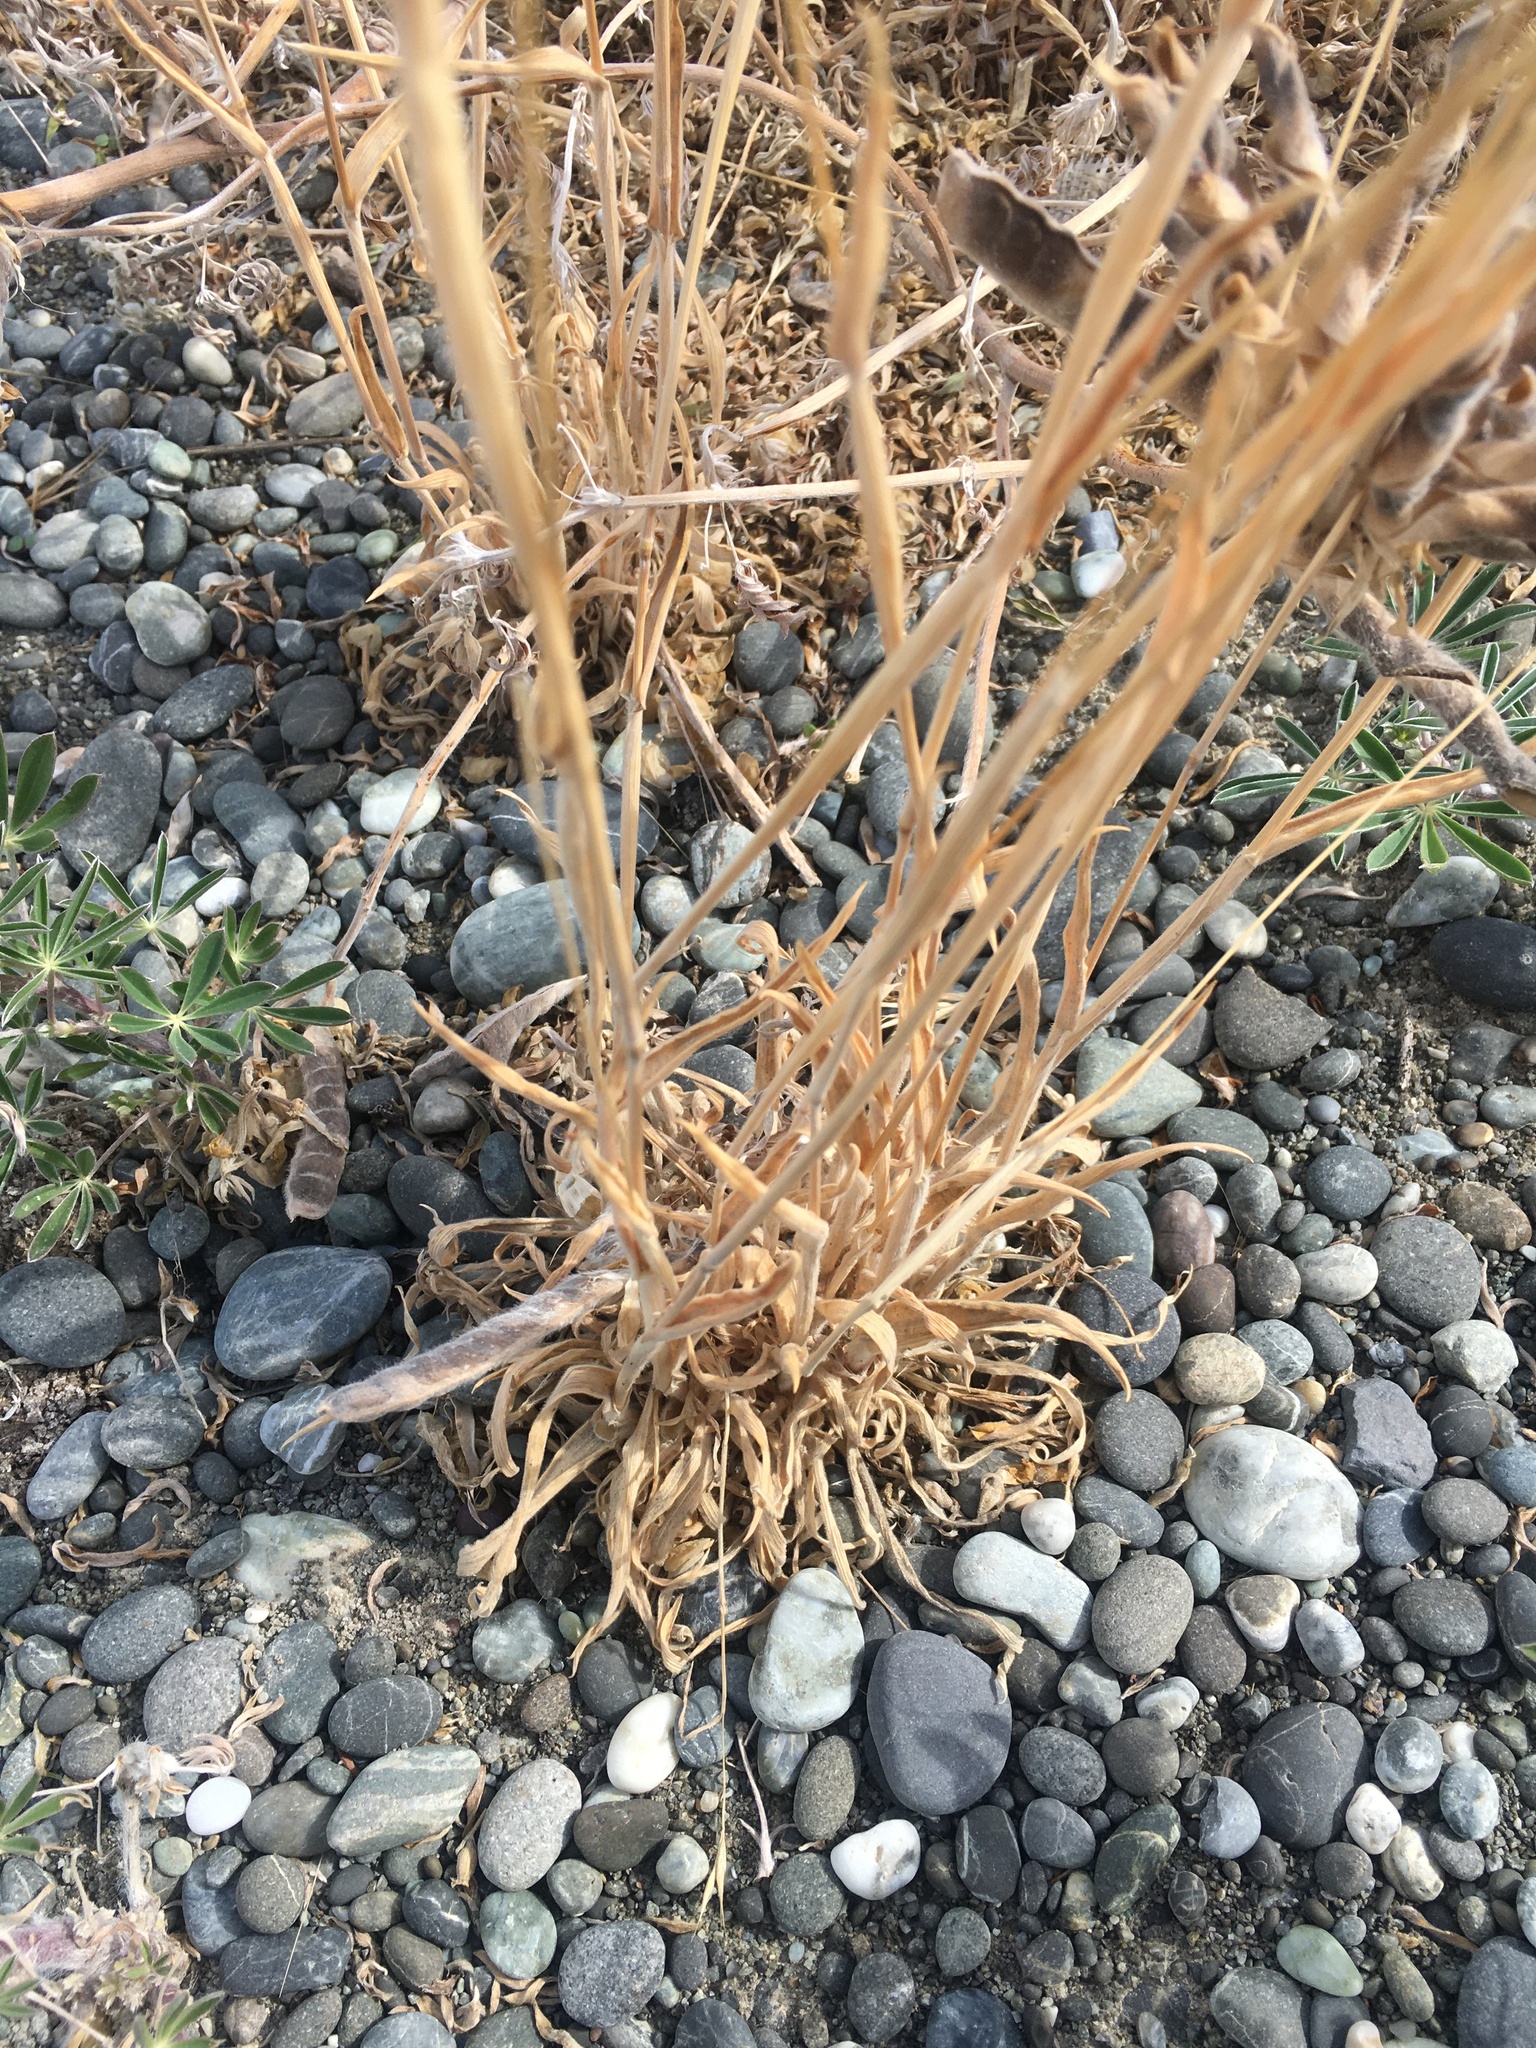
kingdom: Plantae
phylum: Tracheophyta
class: Liliopsida
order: Poales
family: Poaceae
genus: Lagurus
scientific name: Lagurus ovatus
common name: Hare's-tail
